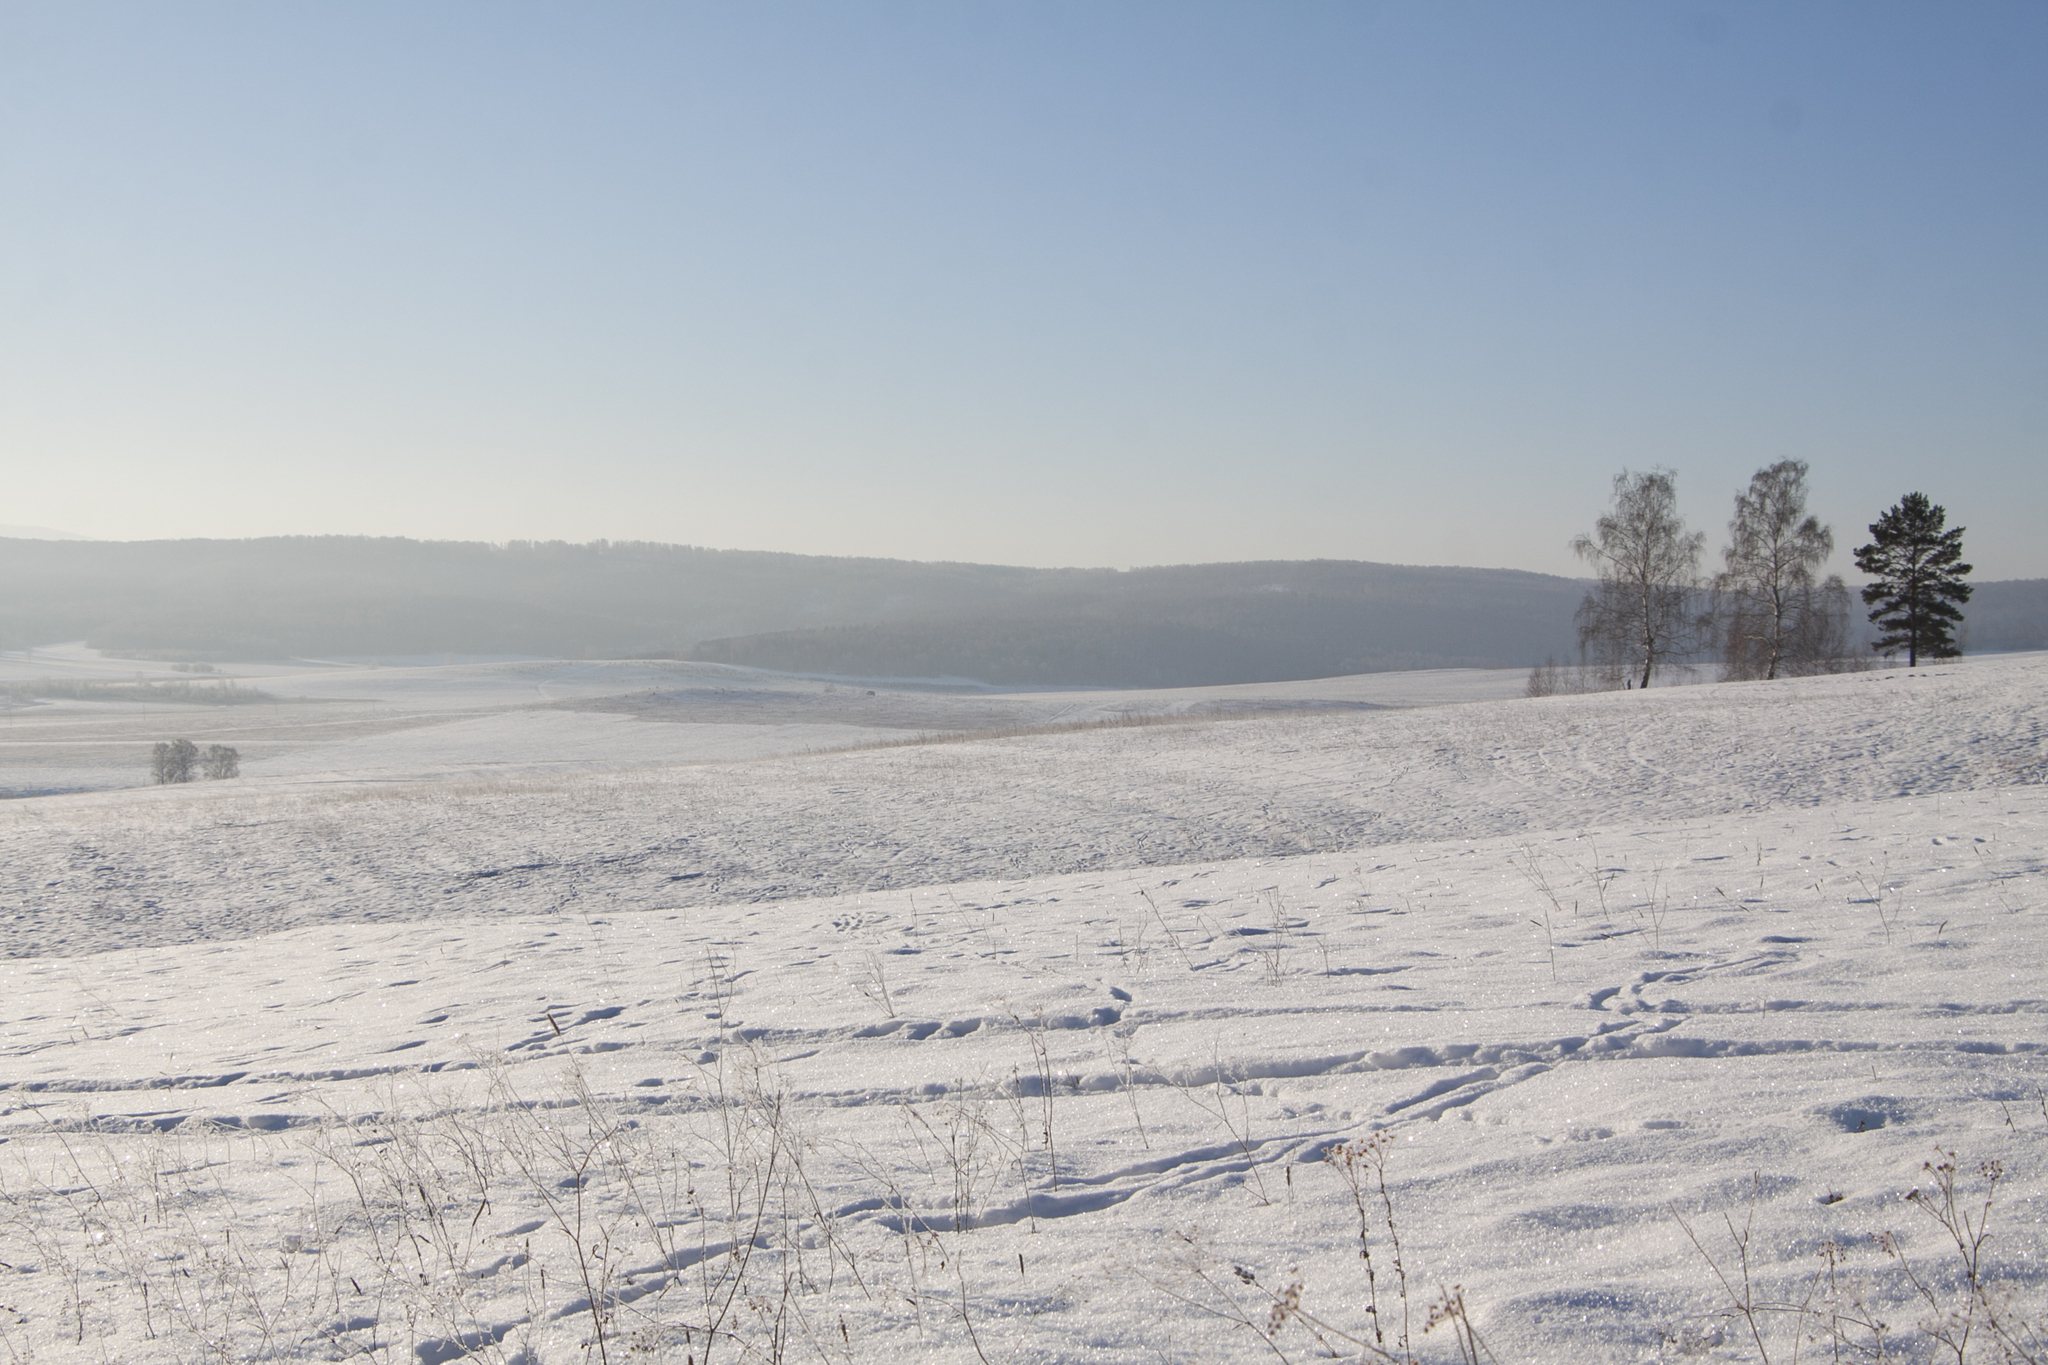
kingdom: Plantae
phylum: Tracheophyta
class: Pinopsida
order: Pinales
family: Pinaceae
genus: Pinus
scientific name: Pinus sylvestris
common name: Scots pine
